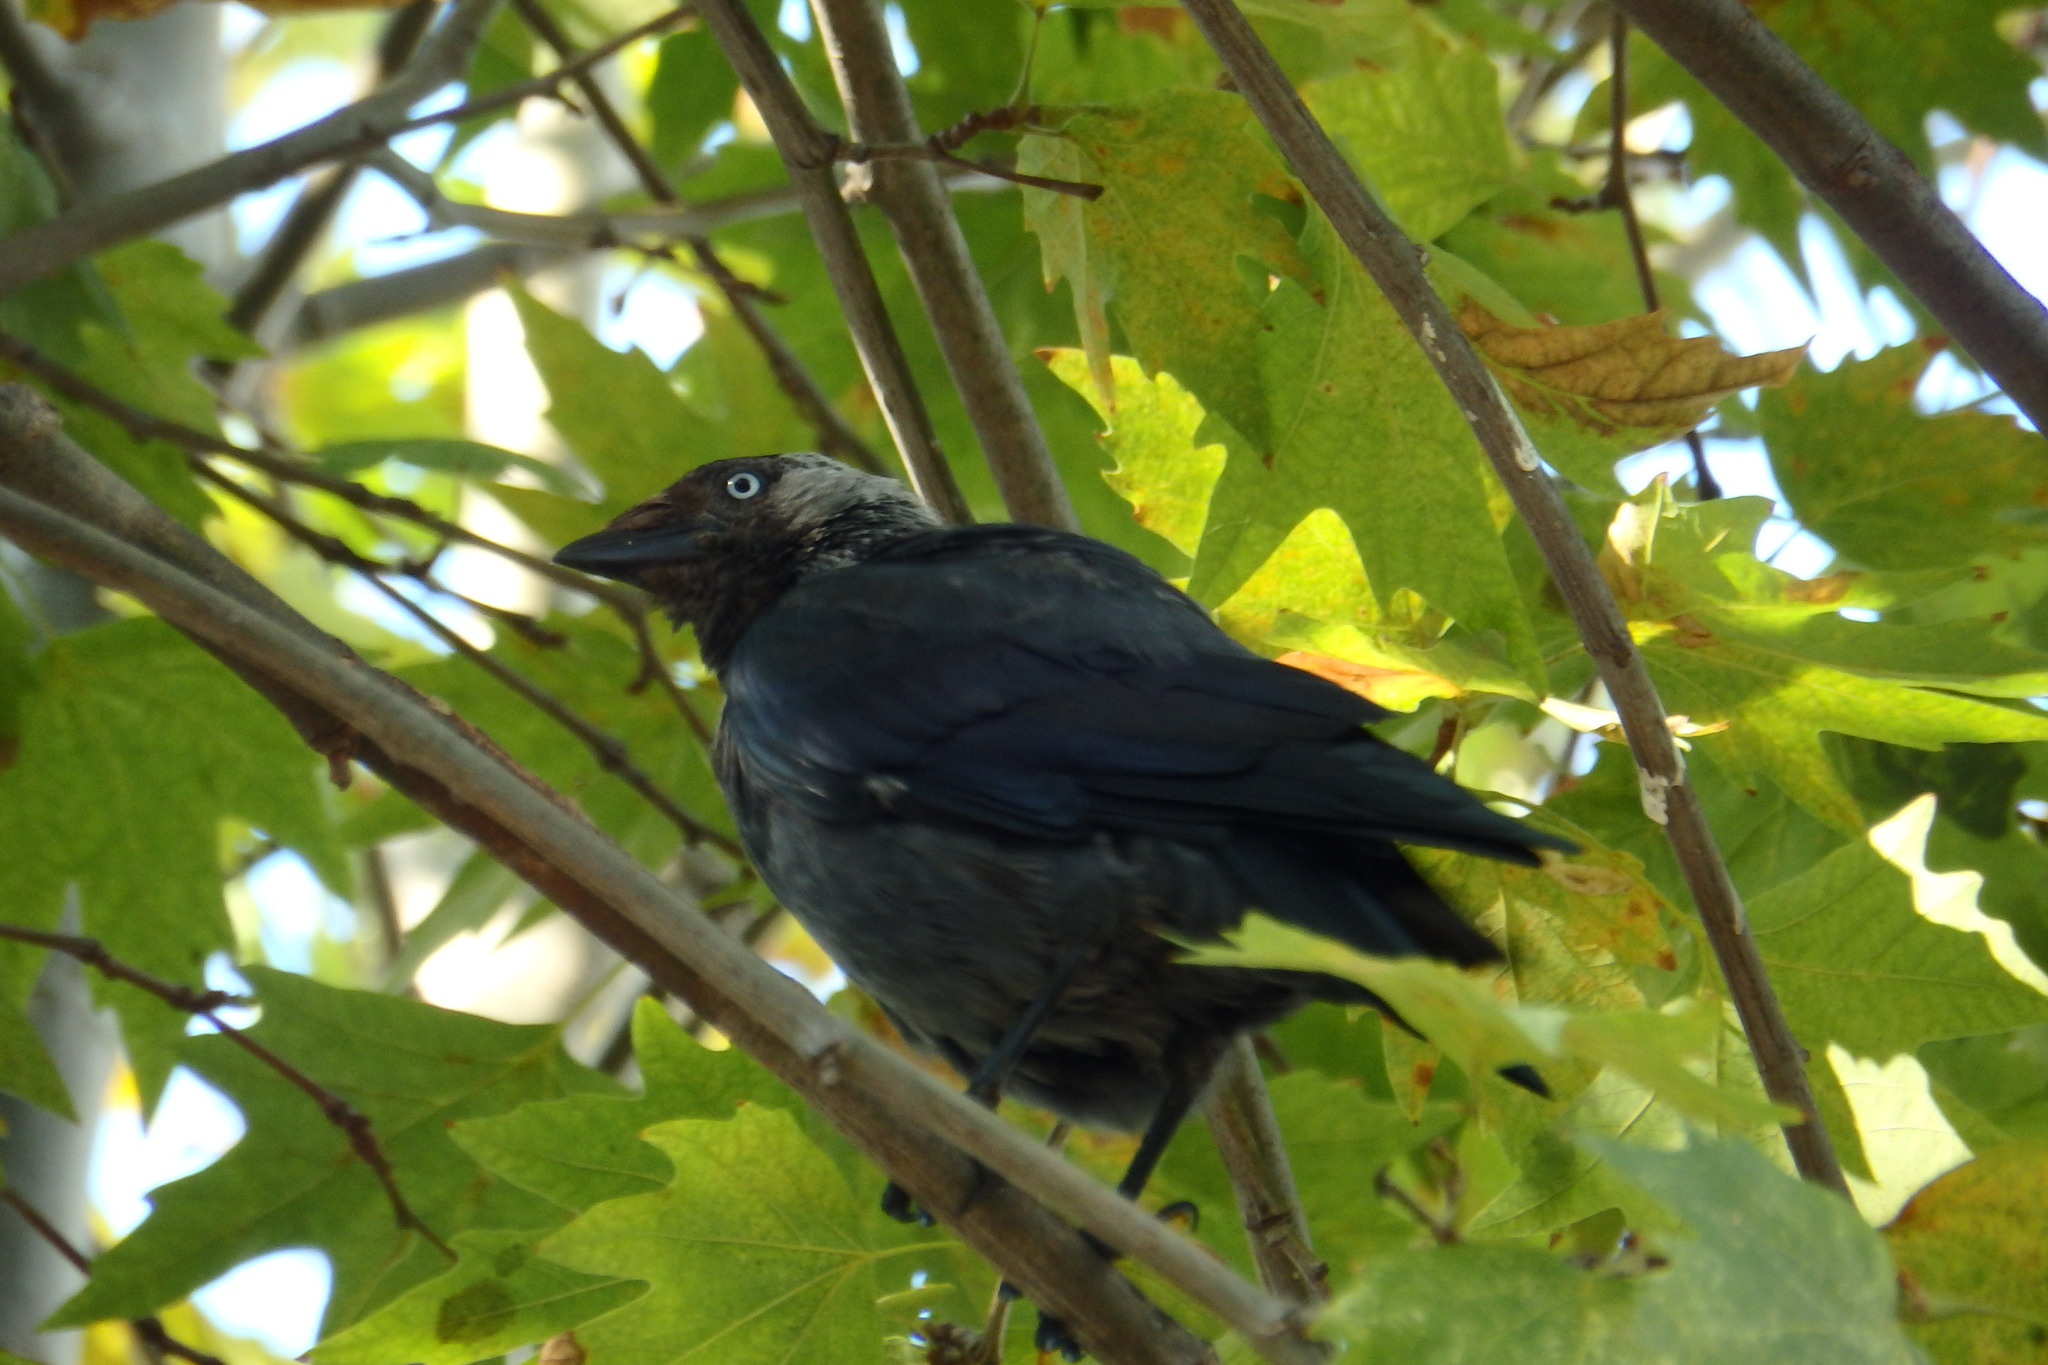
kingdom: Animalia
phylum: Chordata
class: Aves
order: Passeriformes
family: Corvidae
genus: Coloeus
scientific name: Coloeus monedula
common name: Western jackdaw
